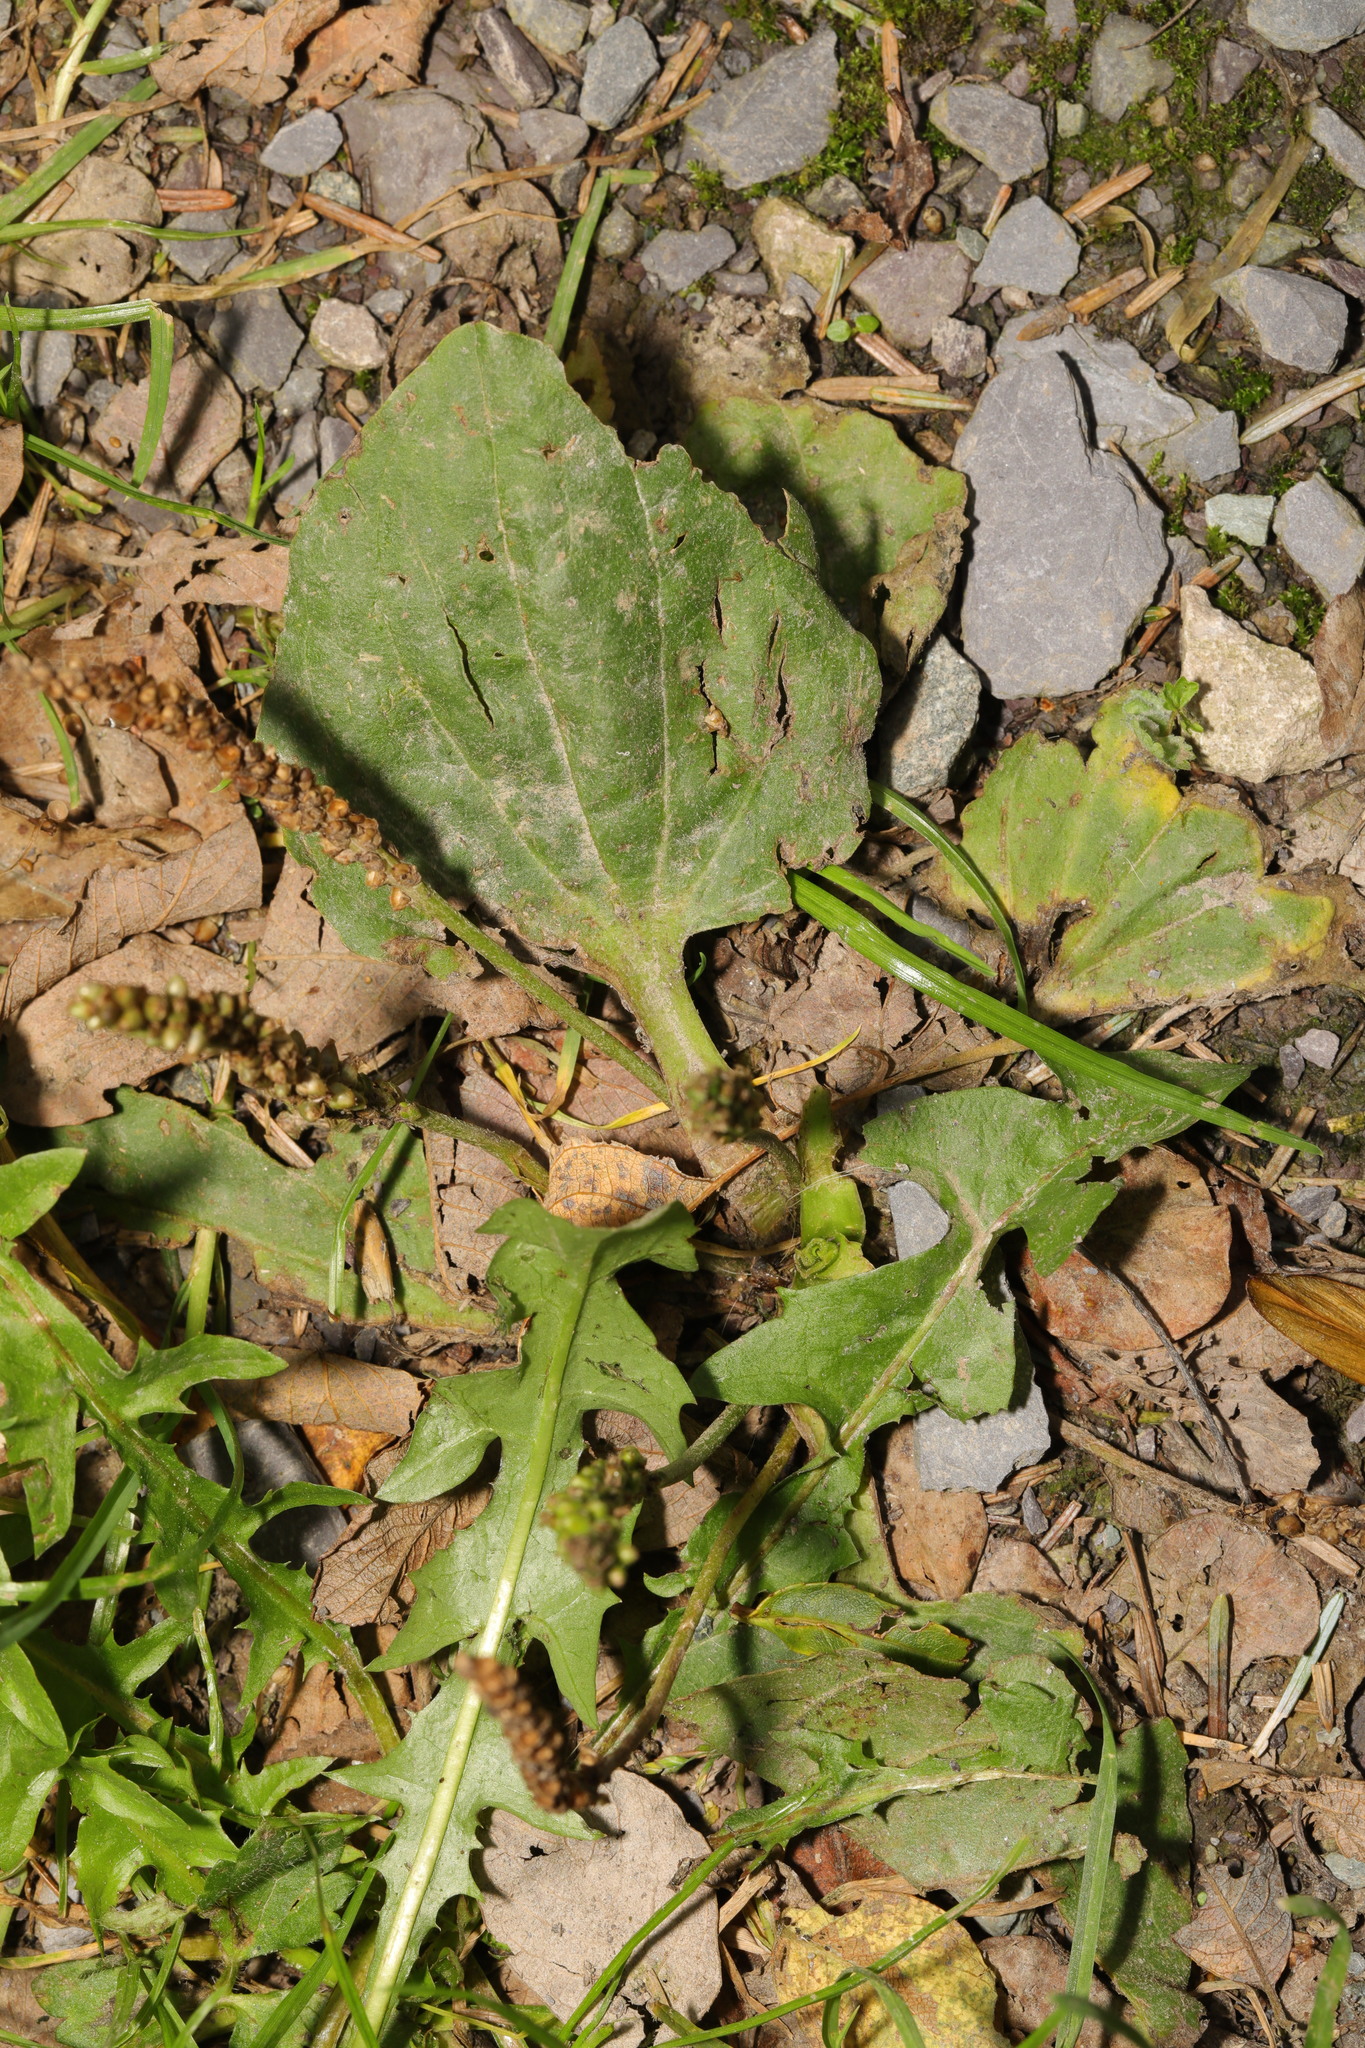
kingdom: Plantae
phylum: Tracheophyta
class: Magnoliopsida
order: Lamiales
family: Plantaginaceae
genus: Plantago
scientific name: Plantago major
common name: Common plantain
